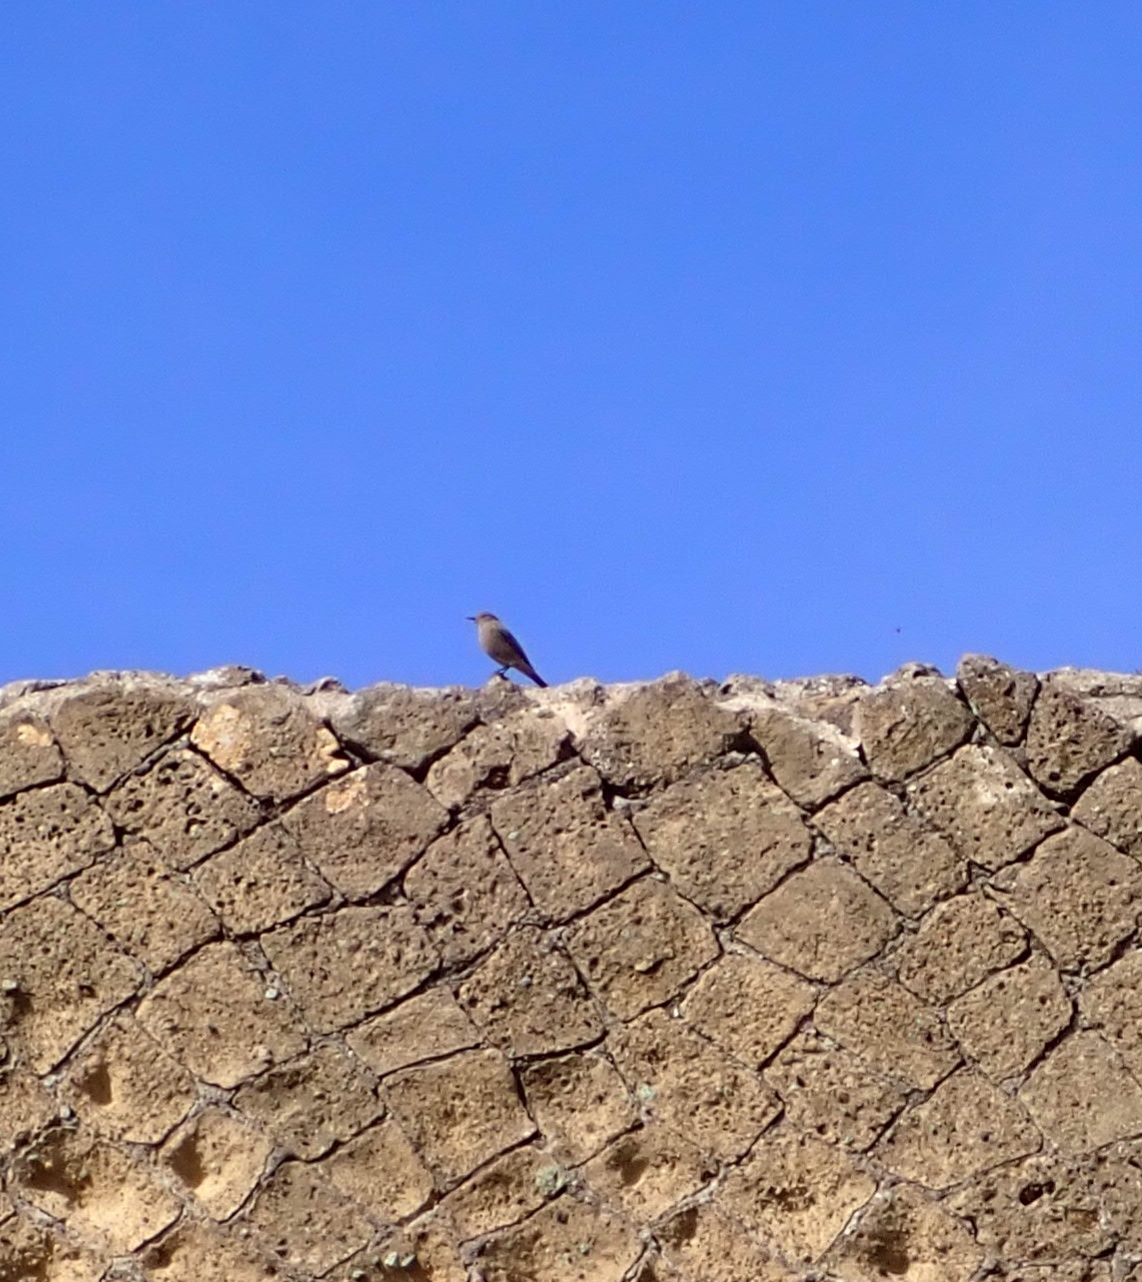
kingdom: Animalia
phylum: Chordata
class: Aves
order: Passeriformes
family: Muscicapidae
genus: Phoenicurus
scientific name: Phoenicurus ochruros
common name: Black redstart
